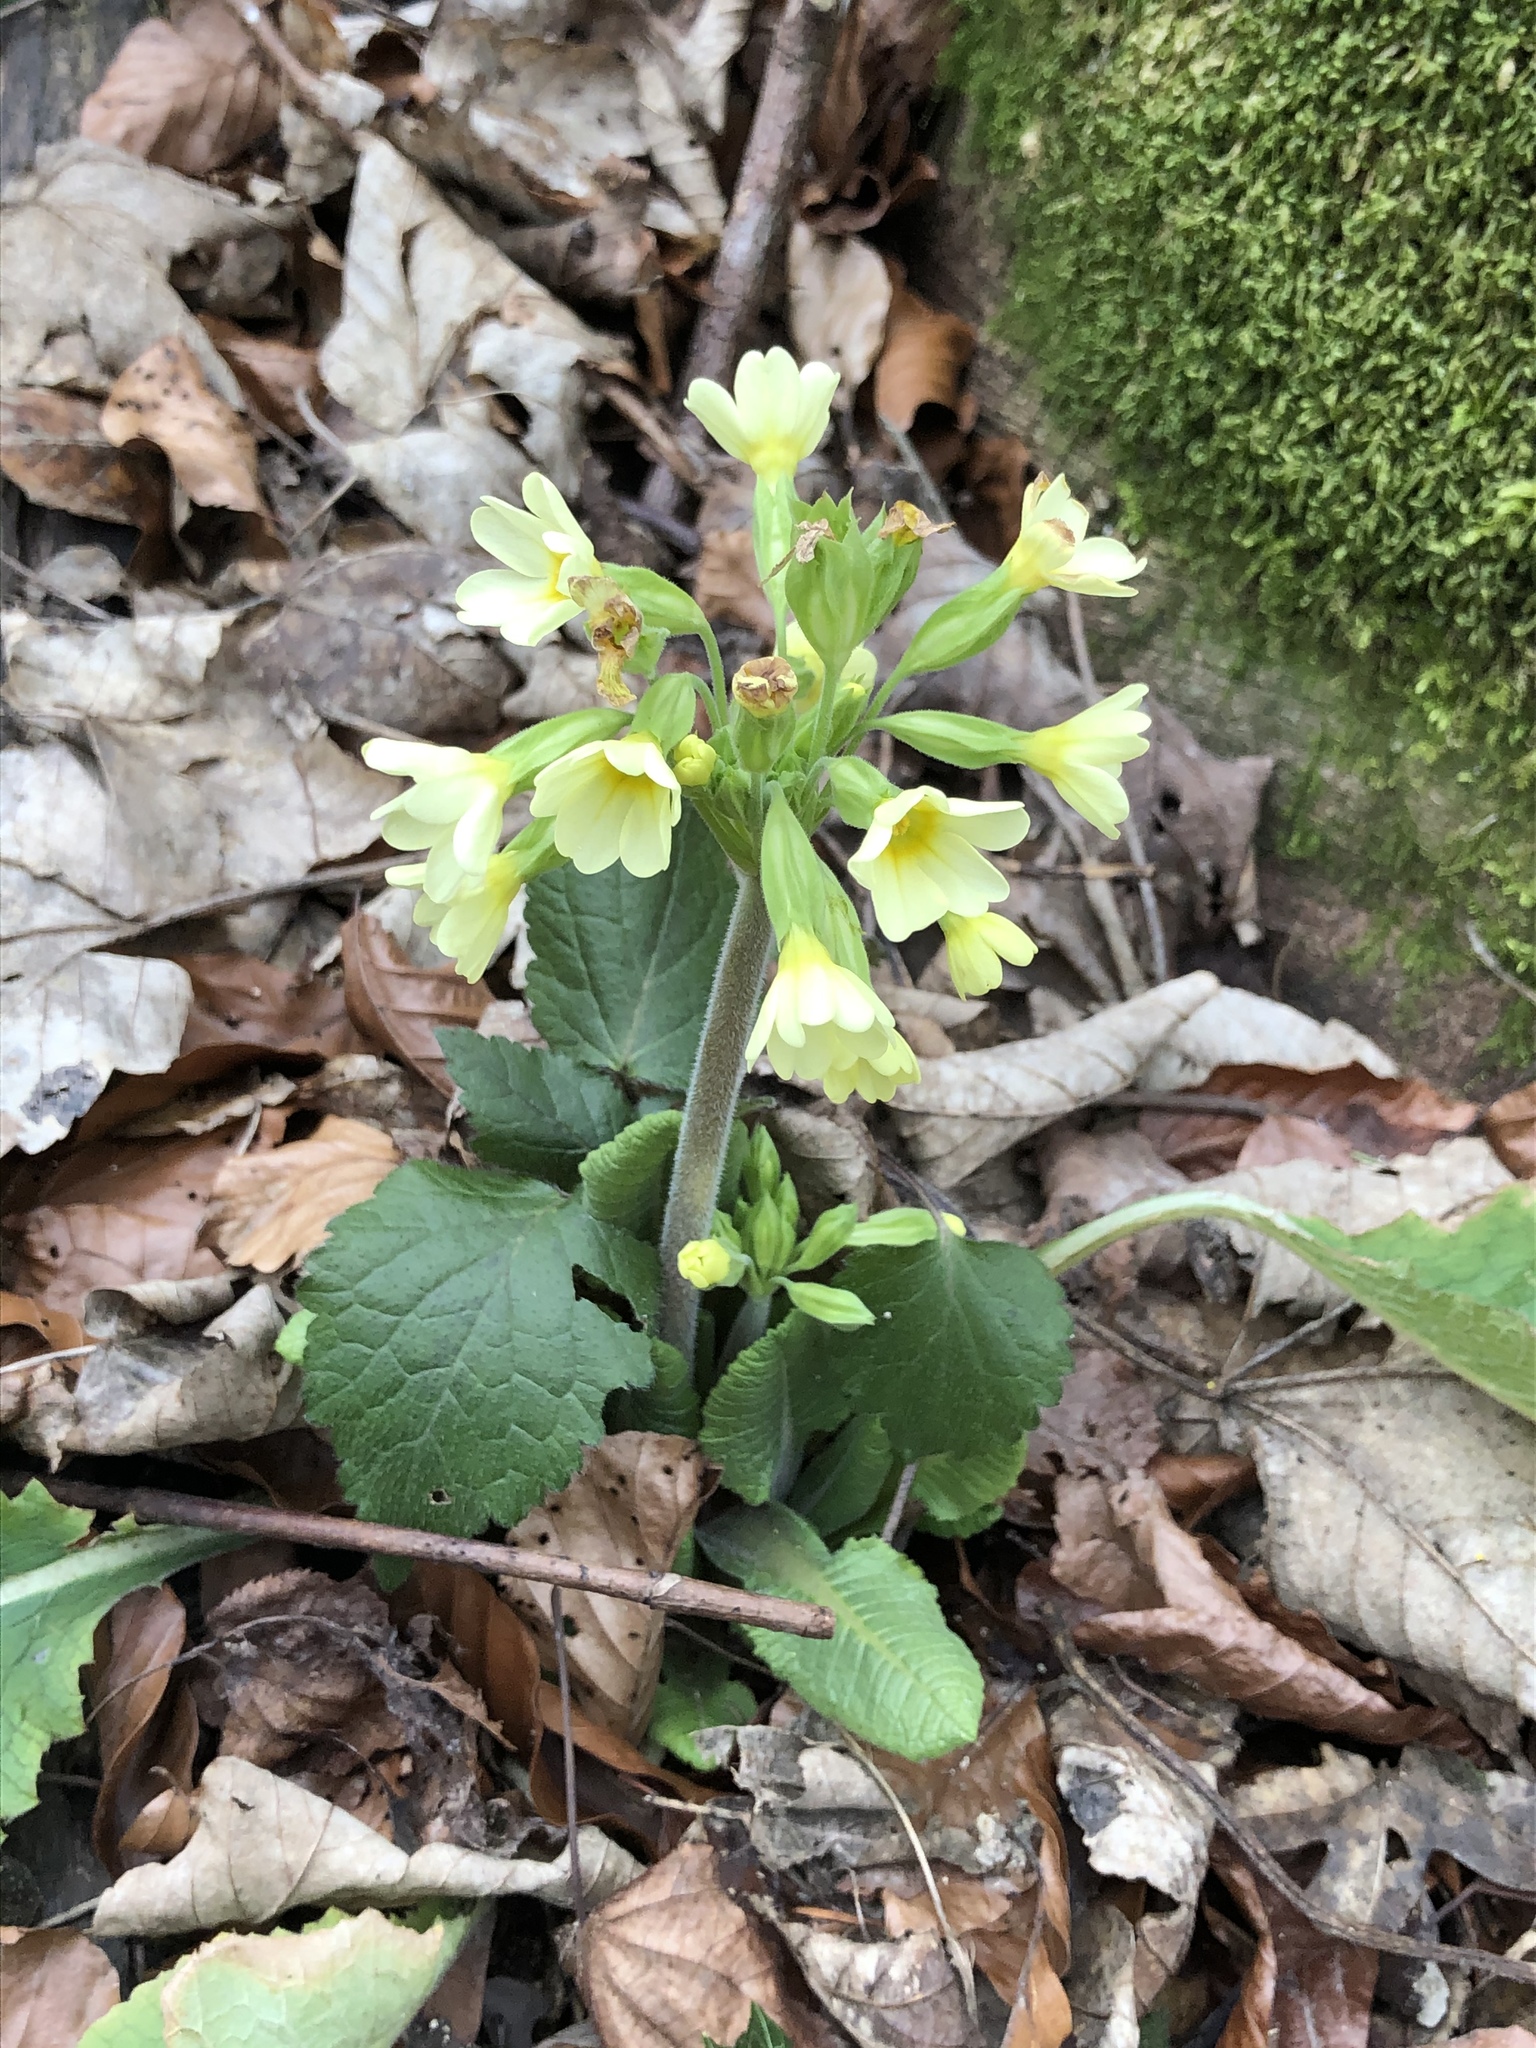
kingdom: Plantae
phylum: Tracheophyta
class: Magnoliopsida
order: Ericales
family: Primulaceae
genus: Primula
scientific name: Primula elatior
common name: Oxlip
